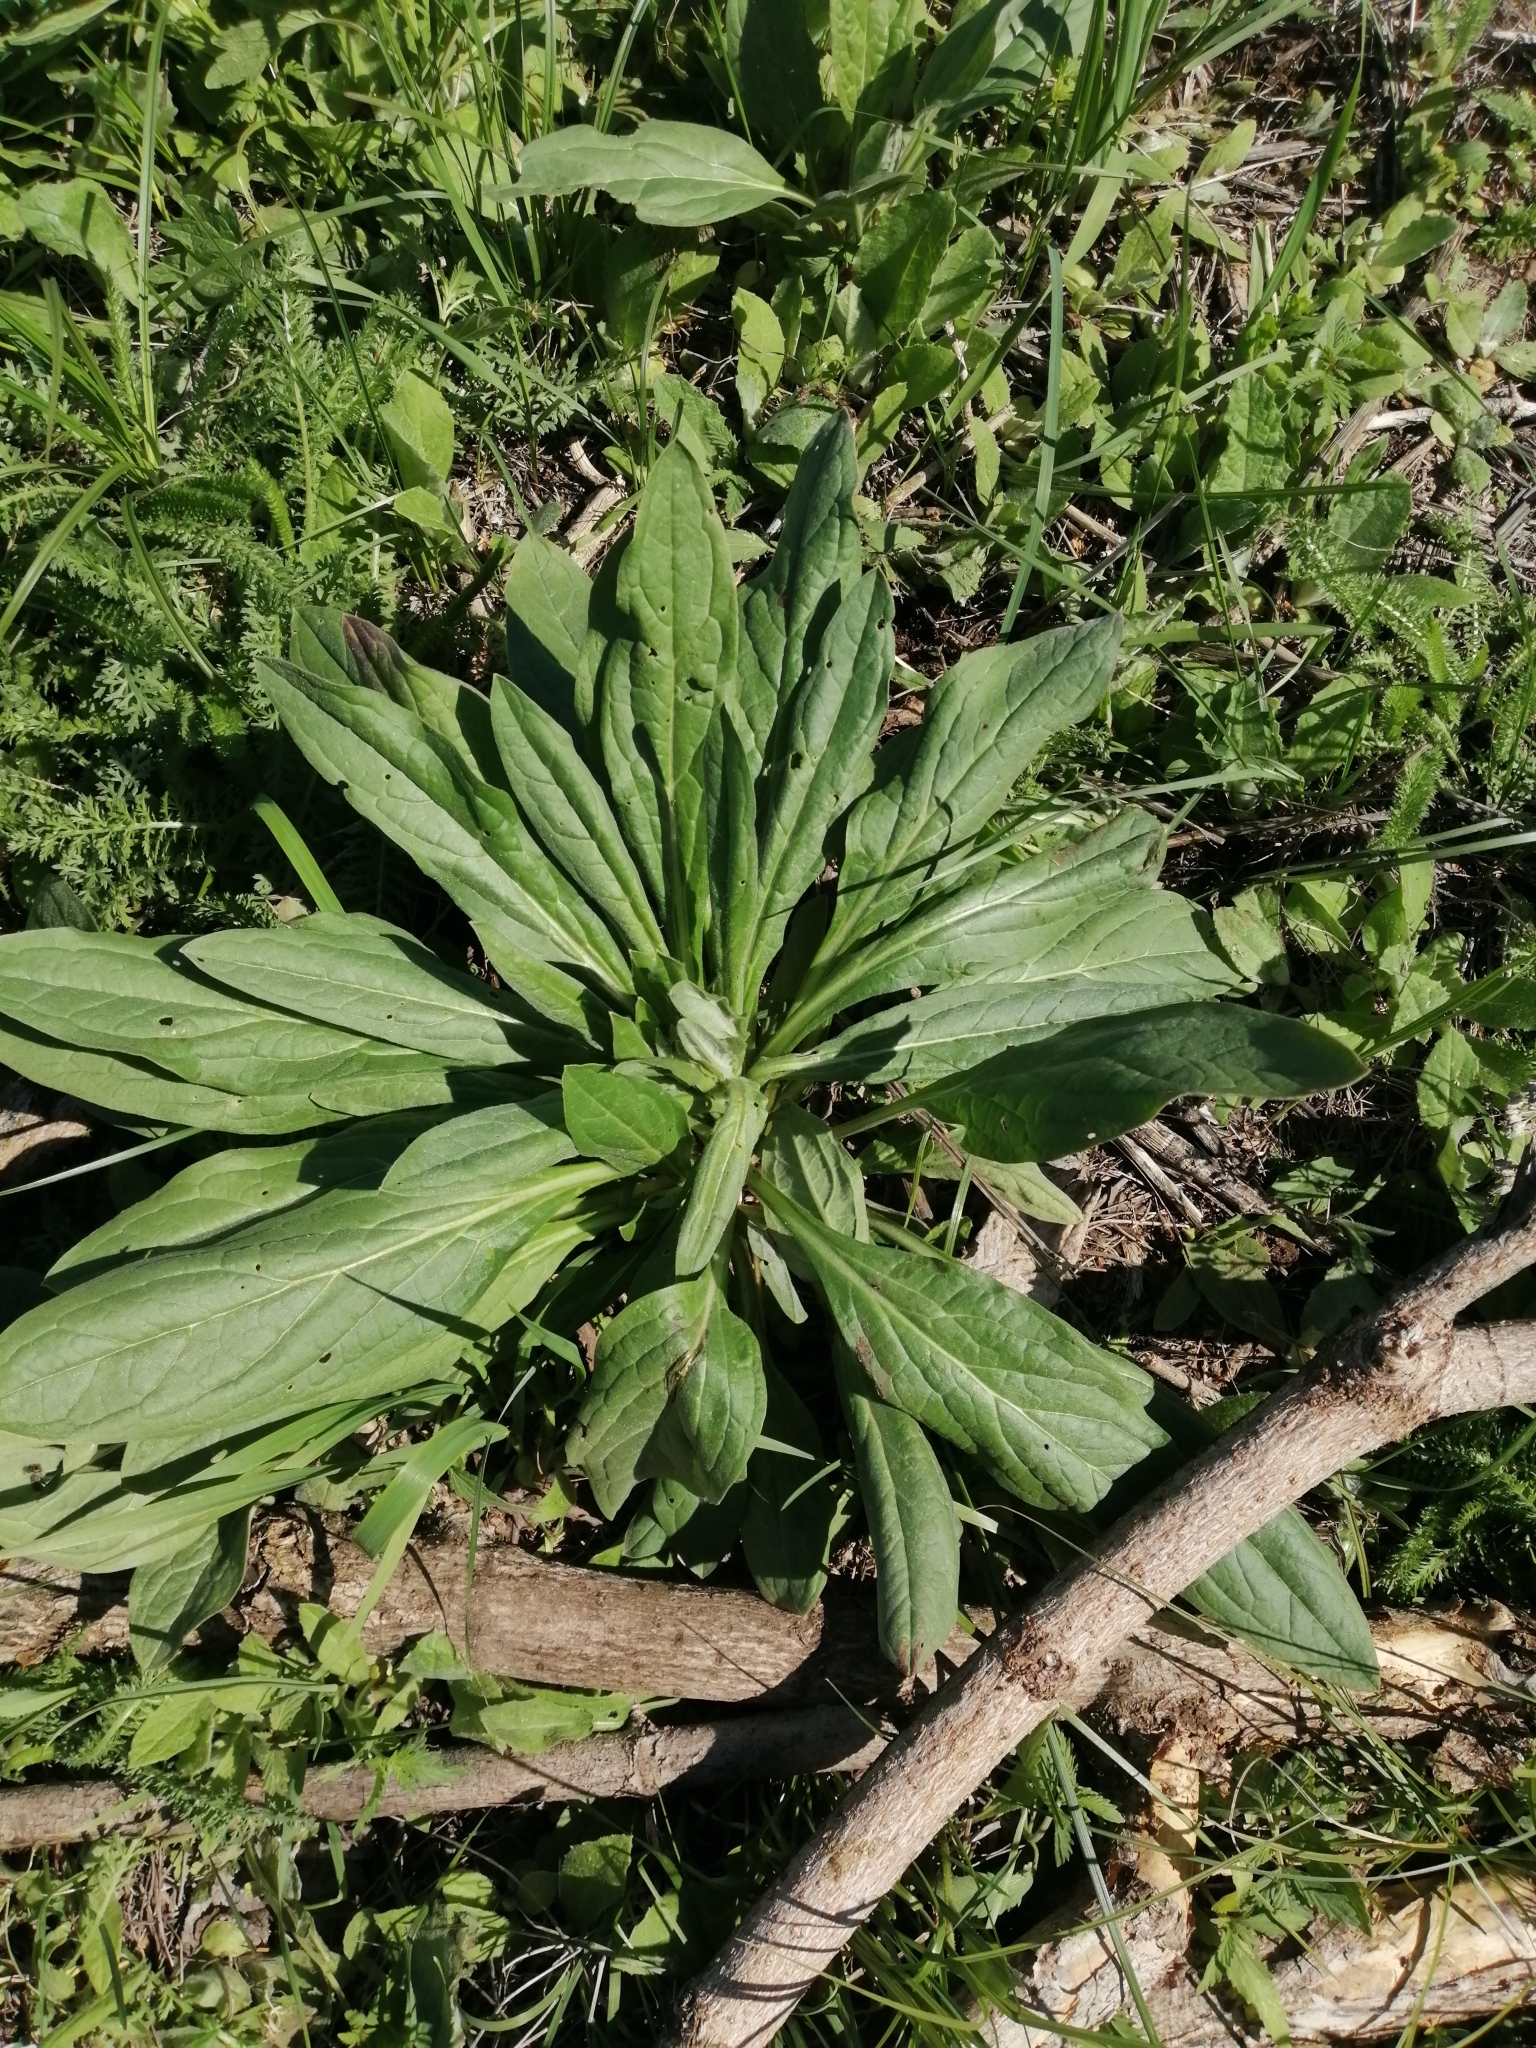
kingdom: Plantae
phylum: Tracheophyta
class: Magnoliopsida
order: Boraginales
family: Boraginaceae
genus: Cynoglossum
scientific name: Cynoglossum officinale
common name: Hound's-tongue
